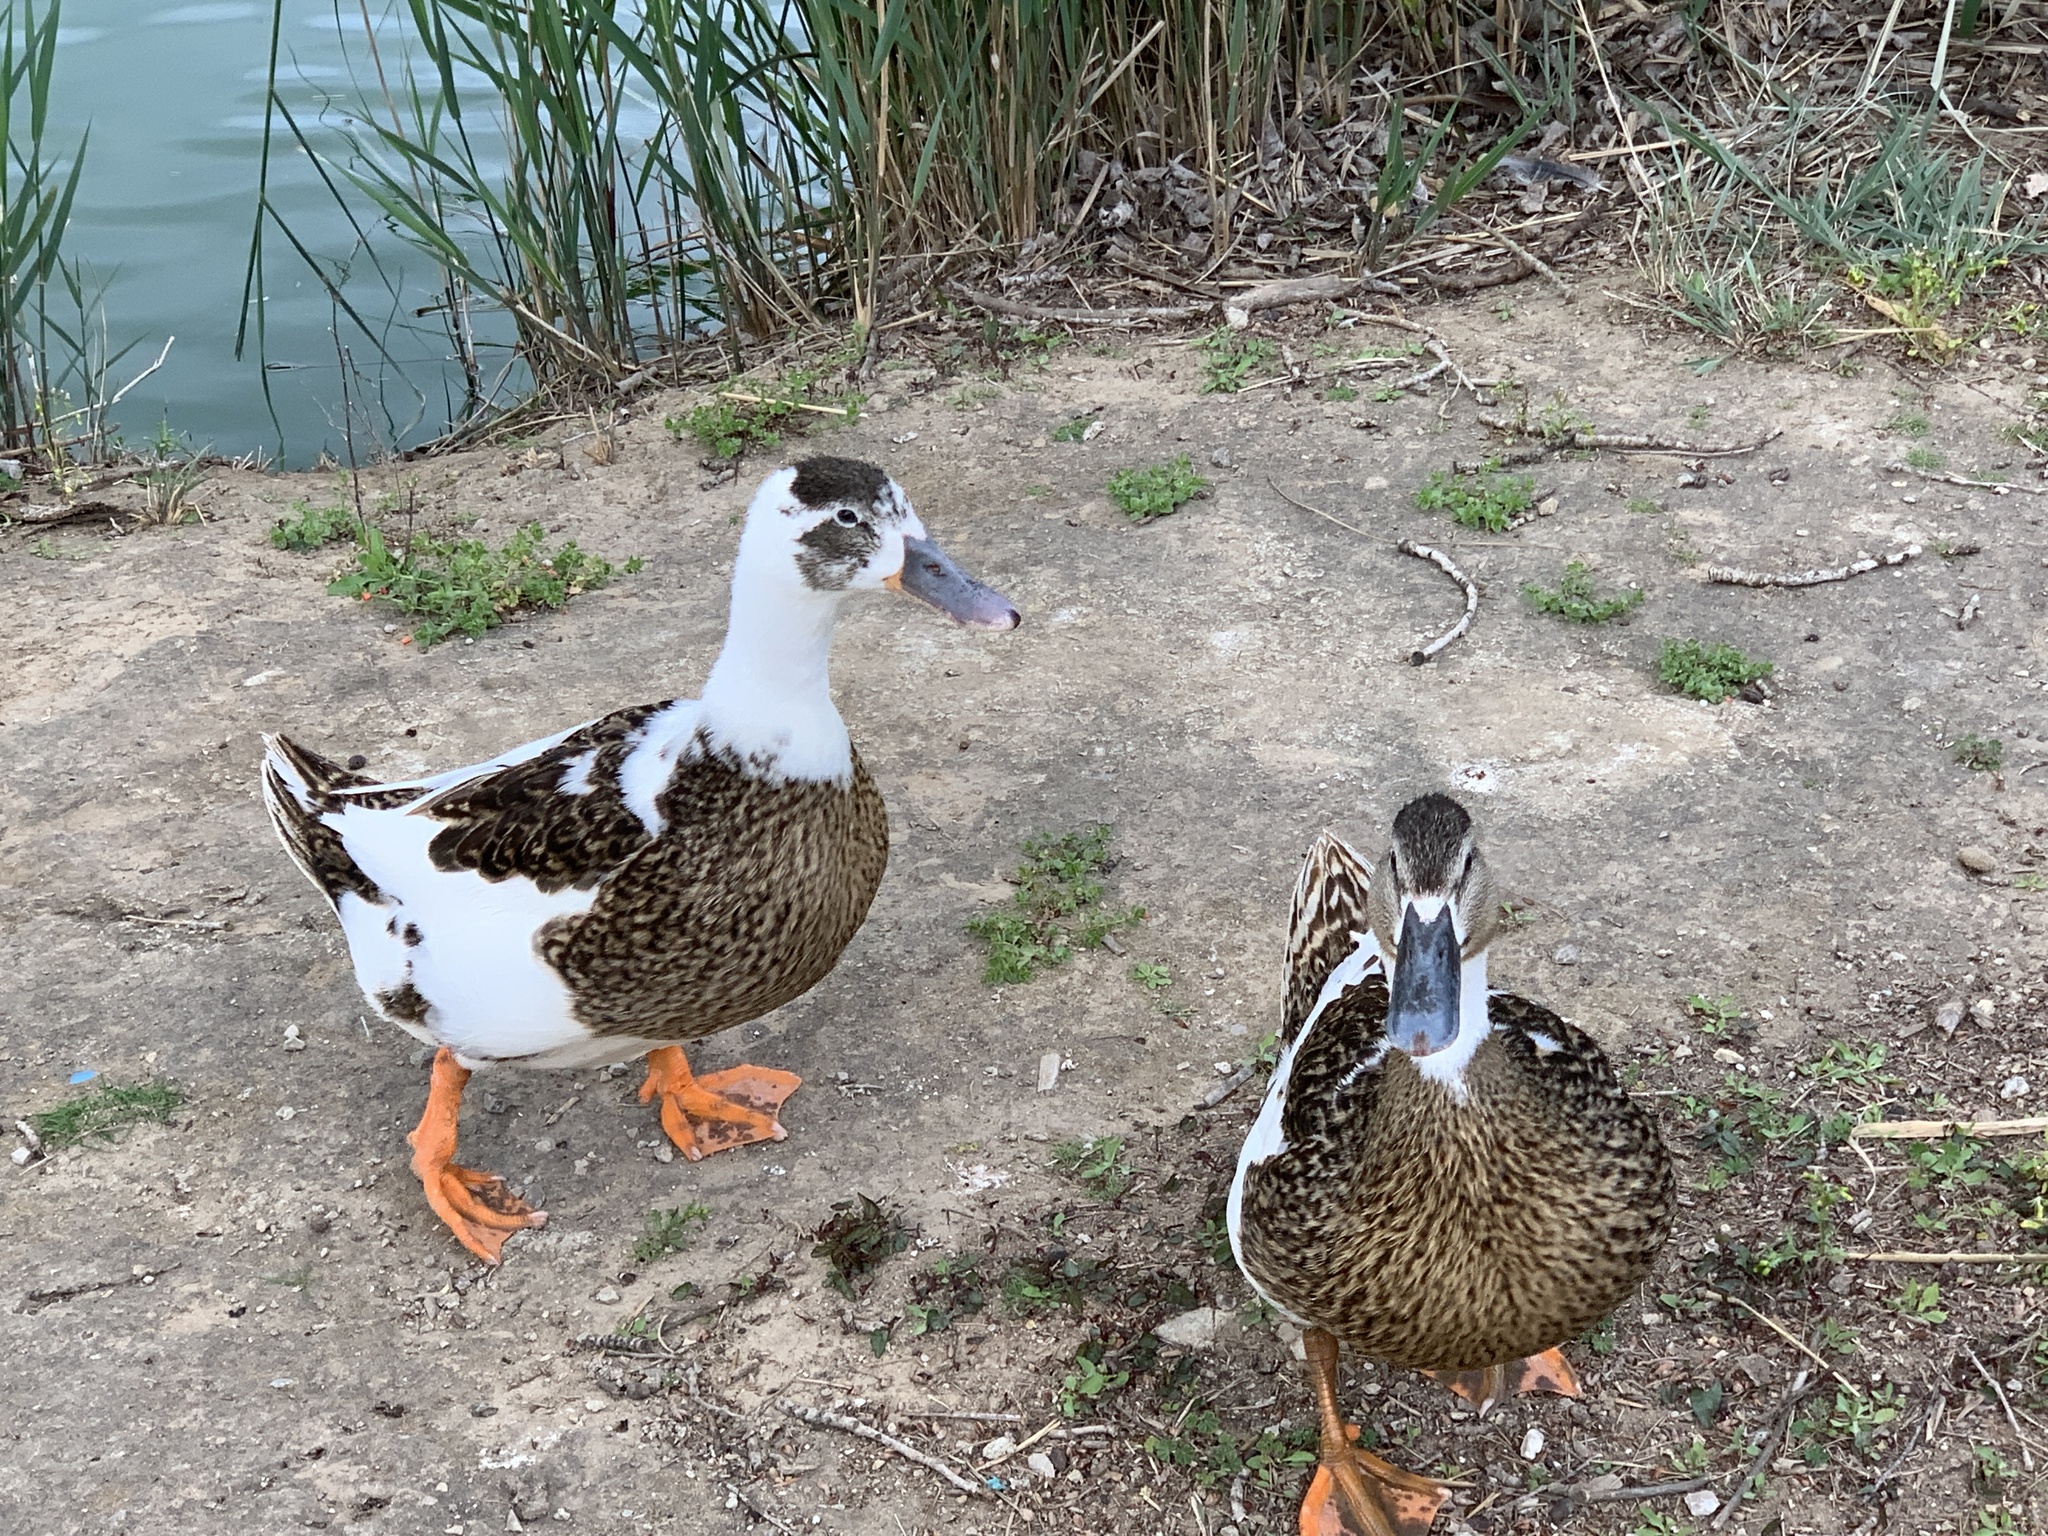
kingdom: Animalia
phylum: Chordata
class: Aves
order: Anseriformes
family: Anatidae
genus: Anas
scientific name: Anas platyrhynchos
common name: Mallard
